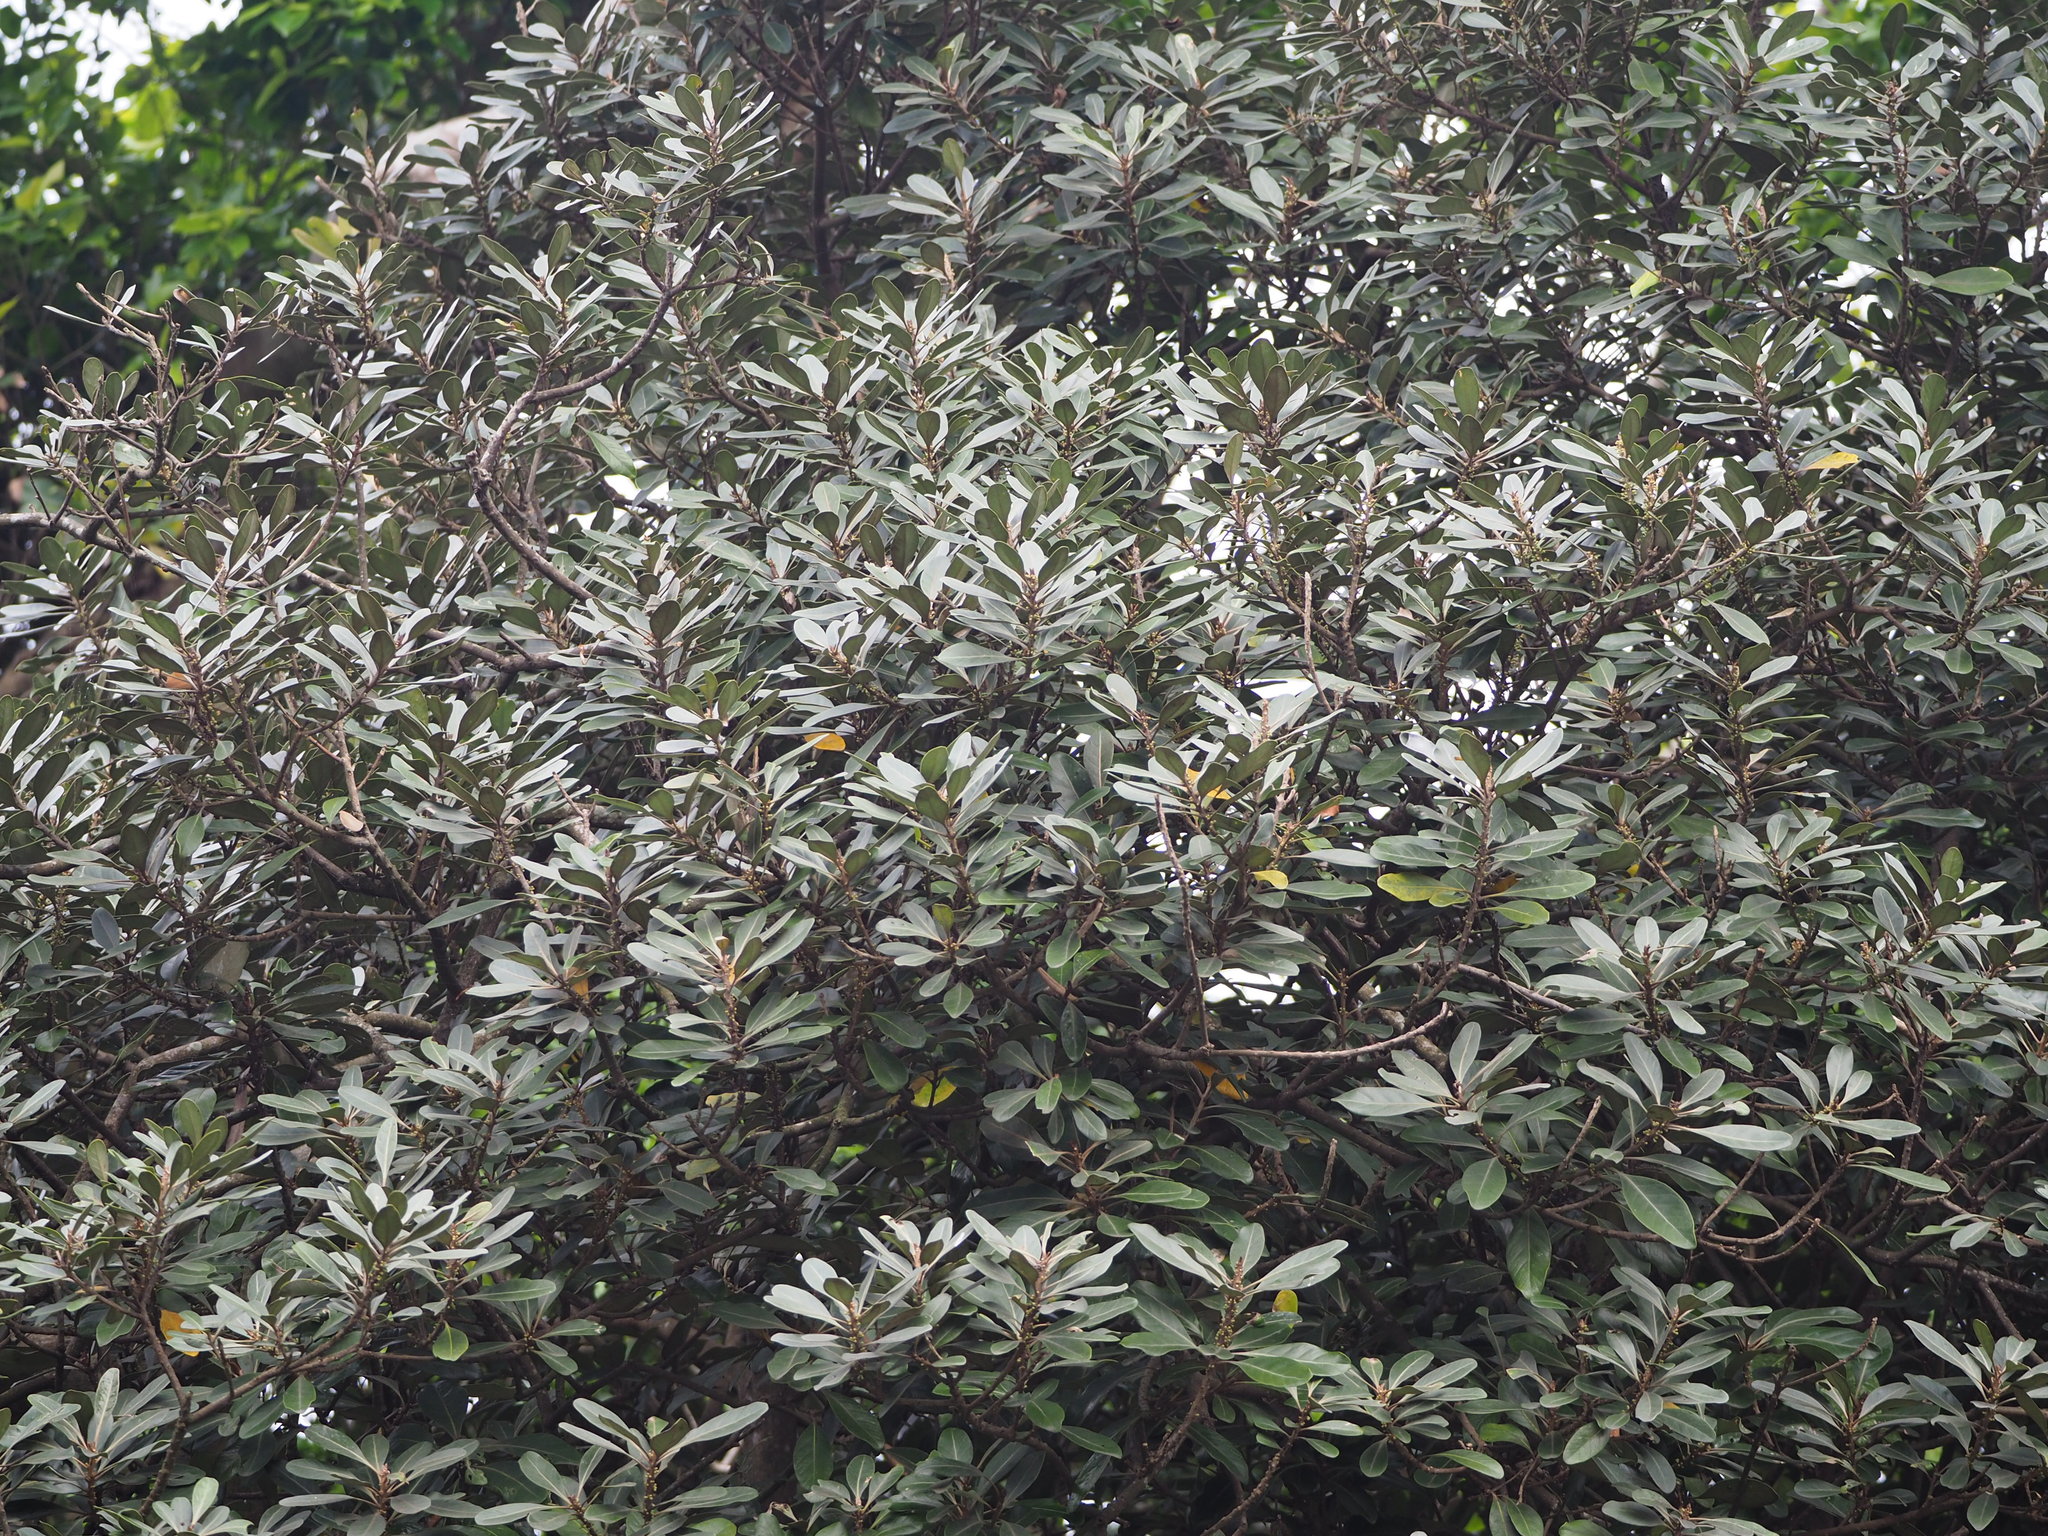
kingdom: Plantae
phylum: Tracheophyta
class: Magnoliopsida
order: Ericales
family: Sapotaceae
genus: Planchonella
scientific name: Planchonella obovata
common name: Black-ash
